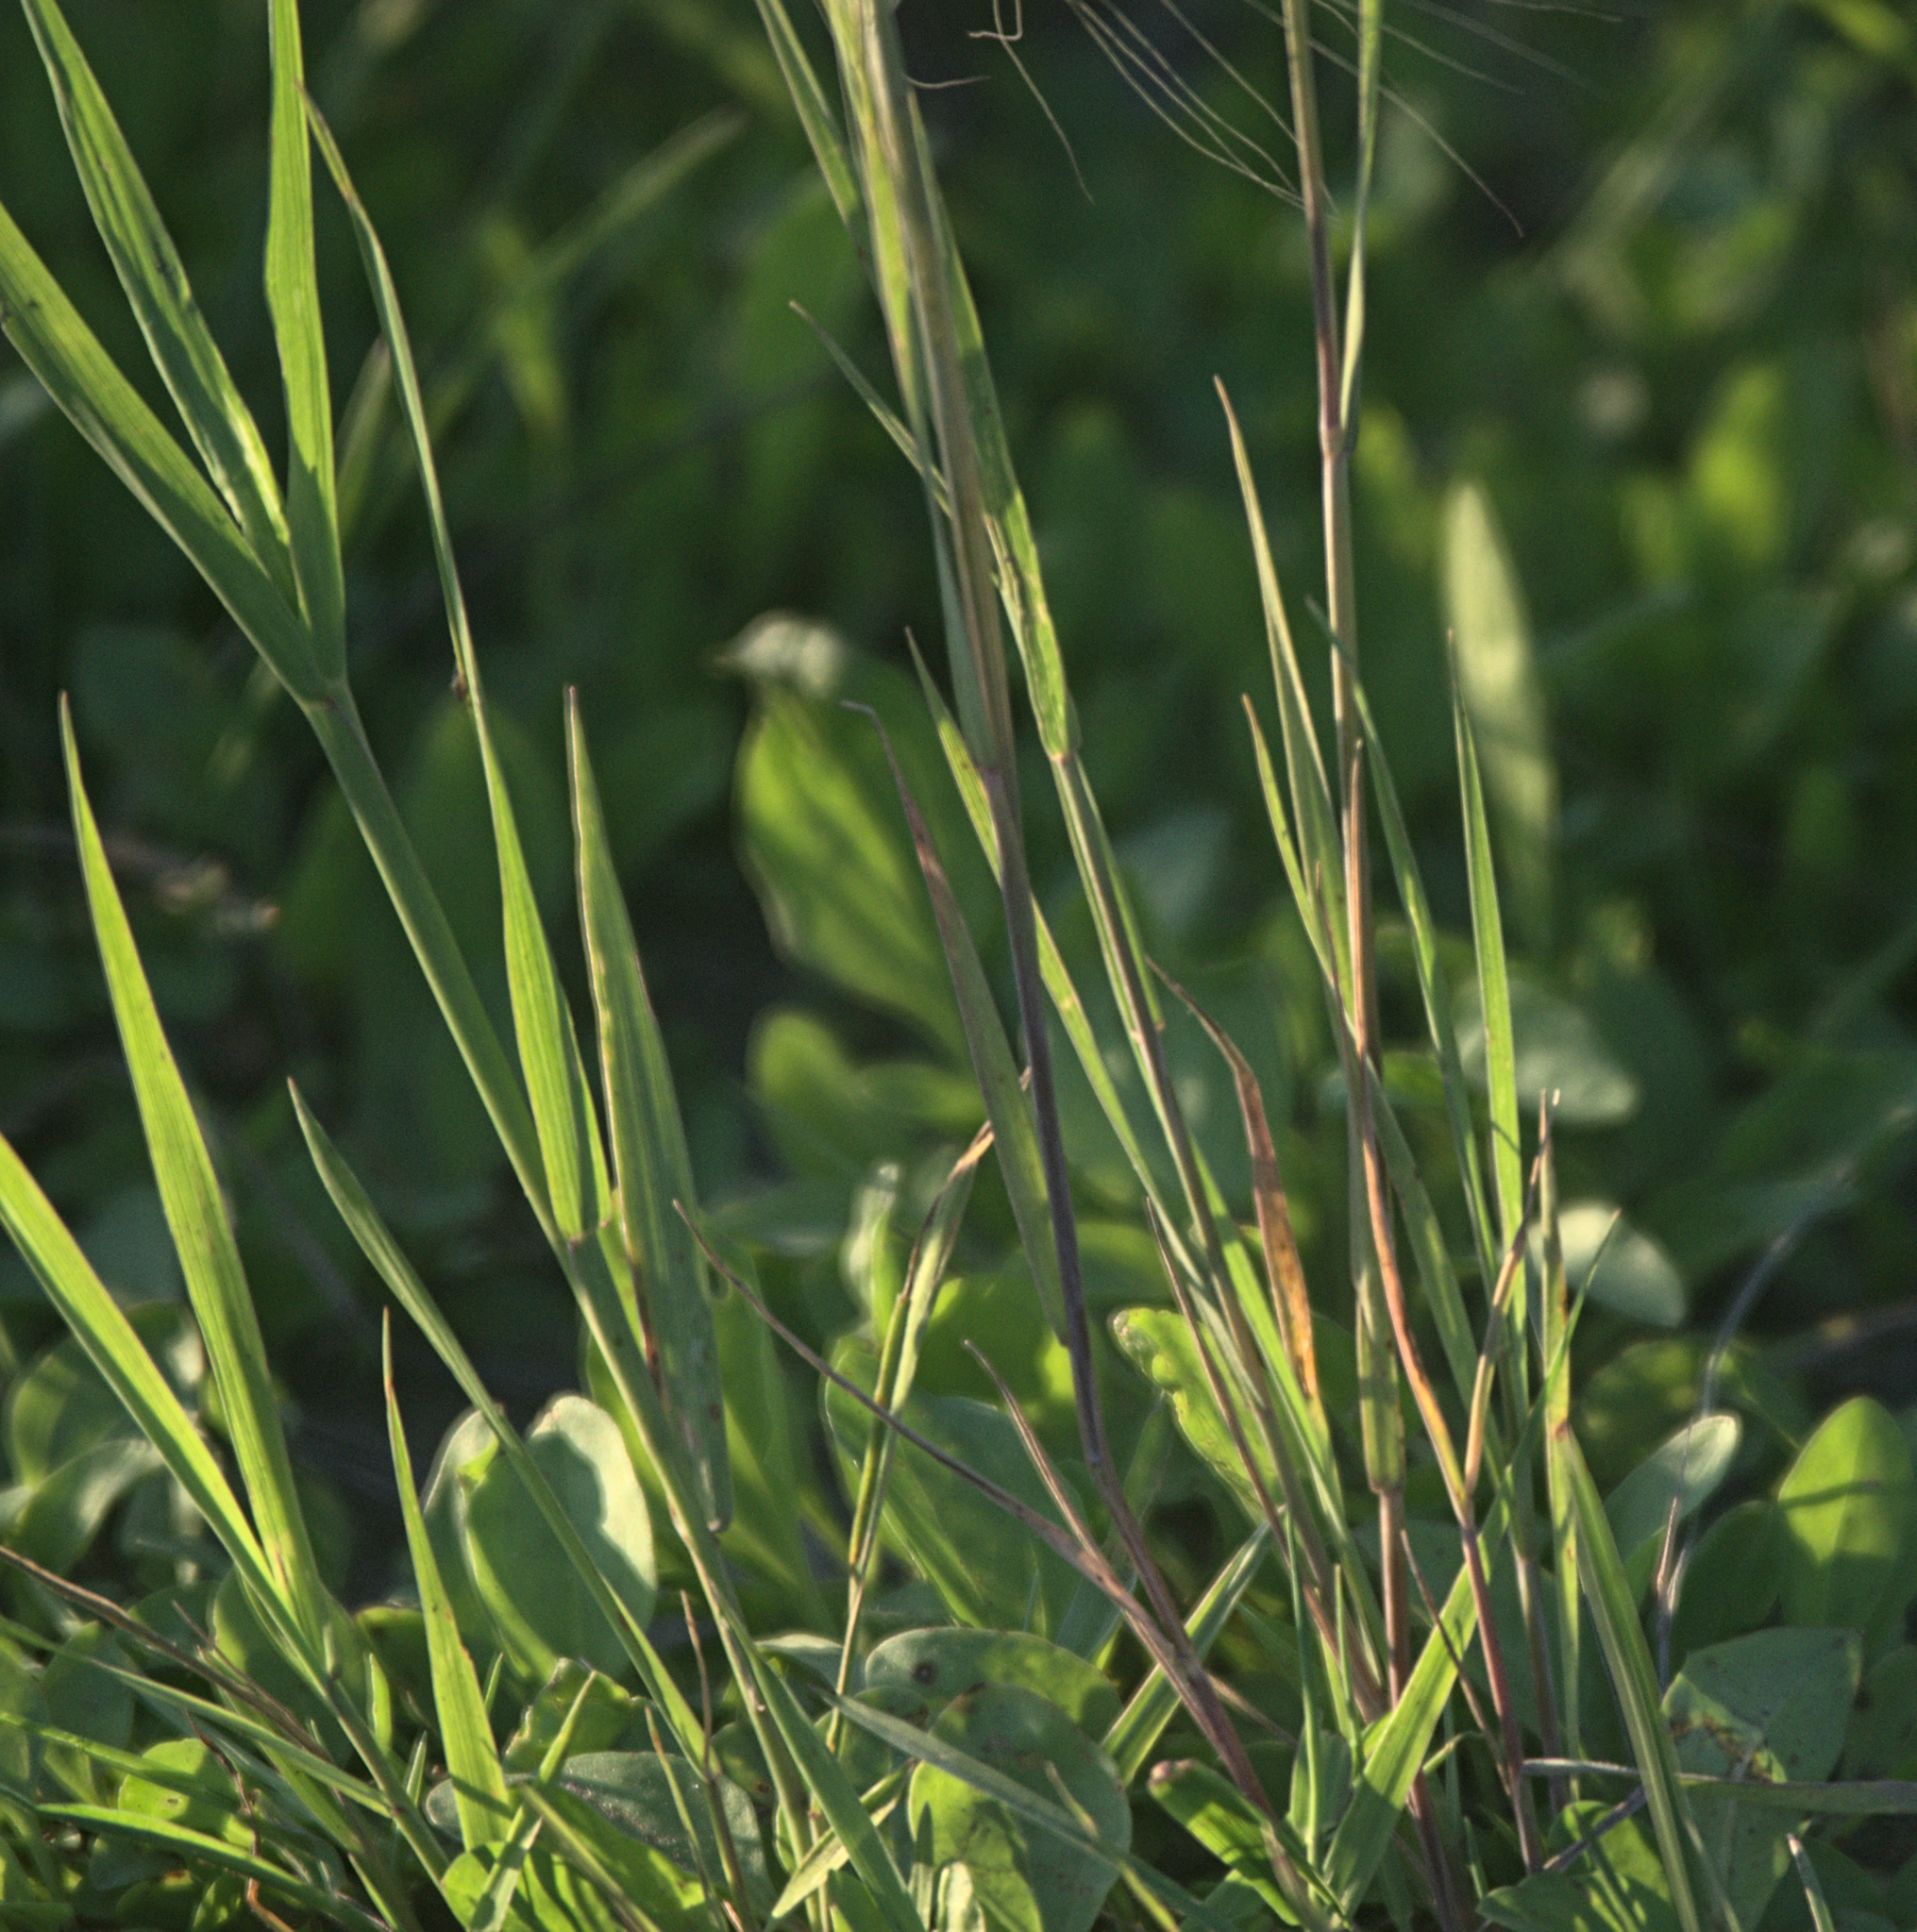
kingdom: Plantae
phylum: Tracheophyta
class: Liliopsida
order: Poales
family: Poaceae
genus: Hordeum
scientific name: Hordeum jubatum
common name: Foxtail barley
